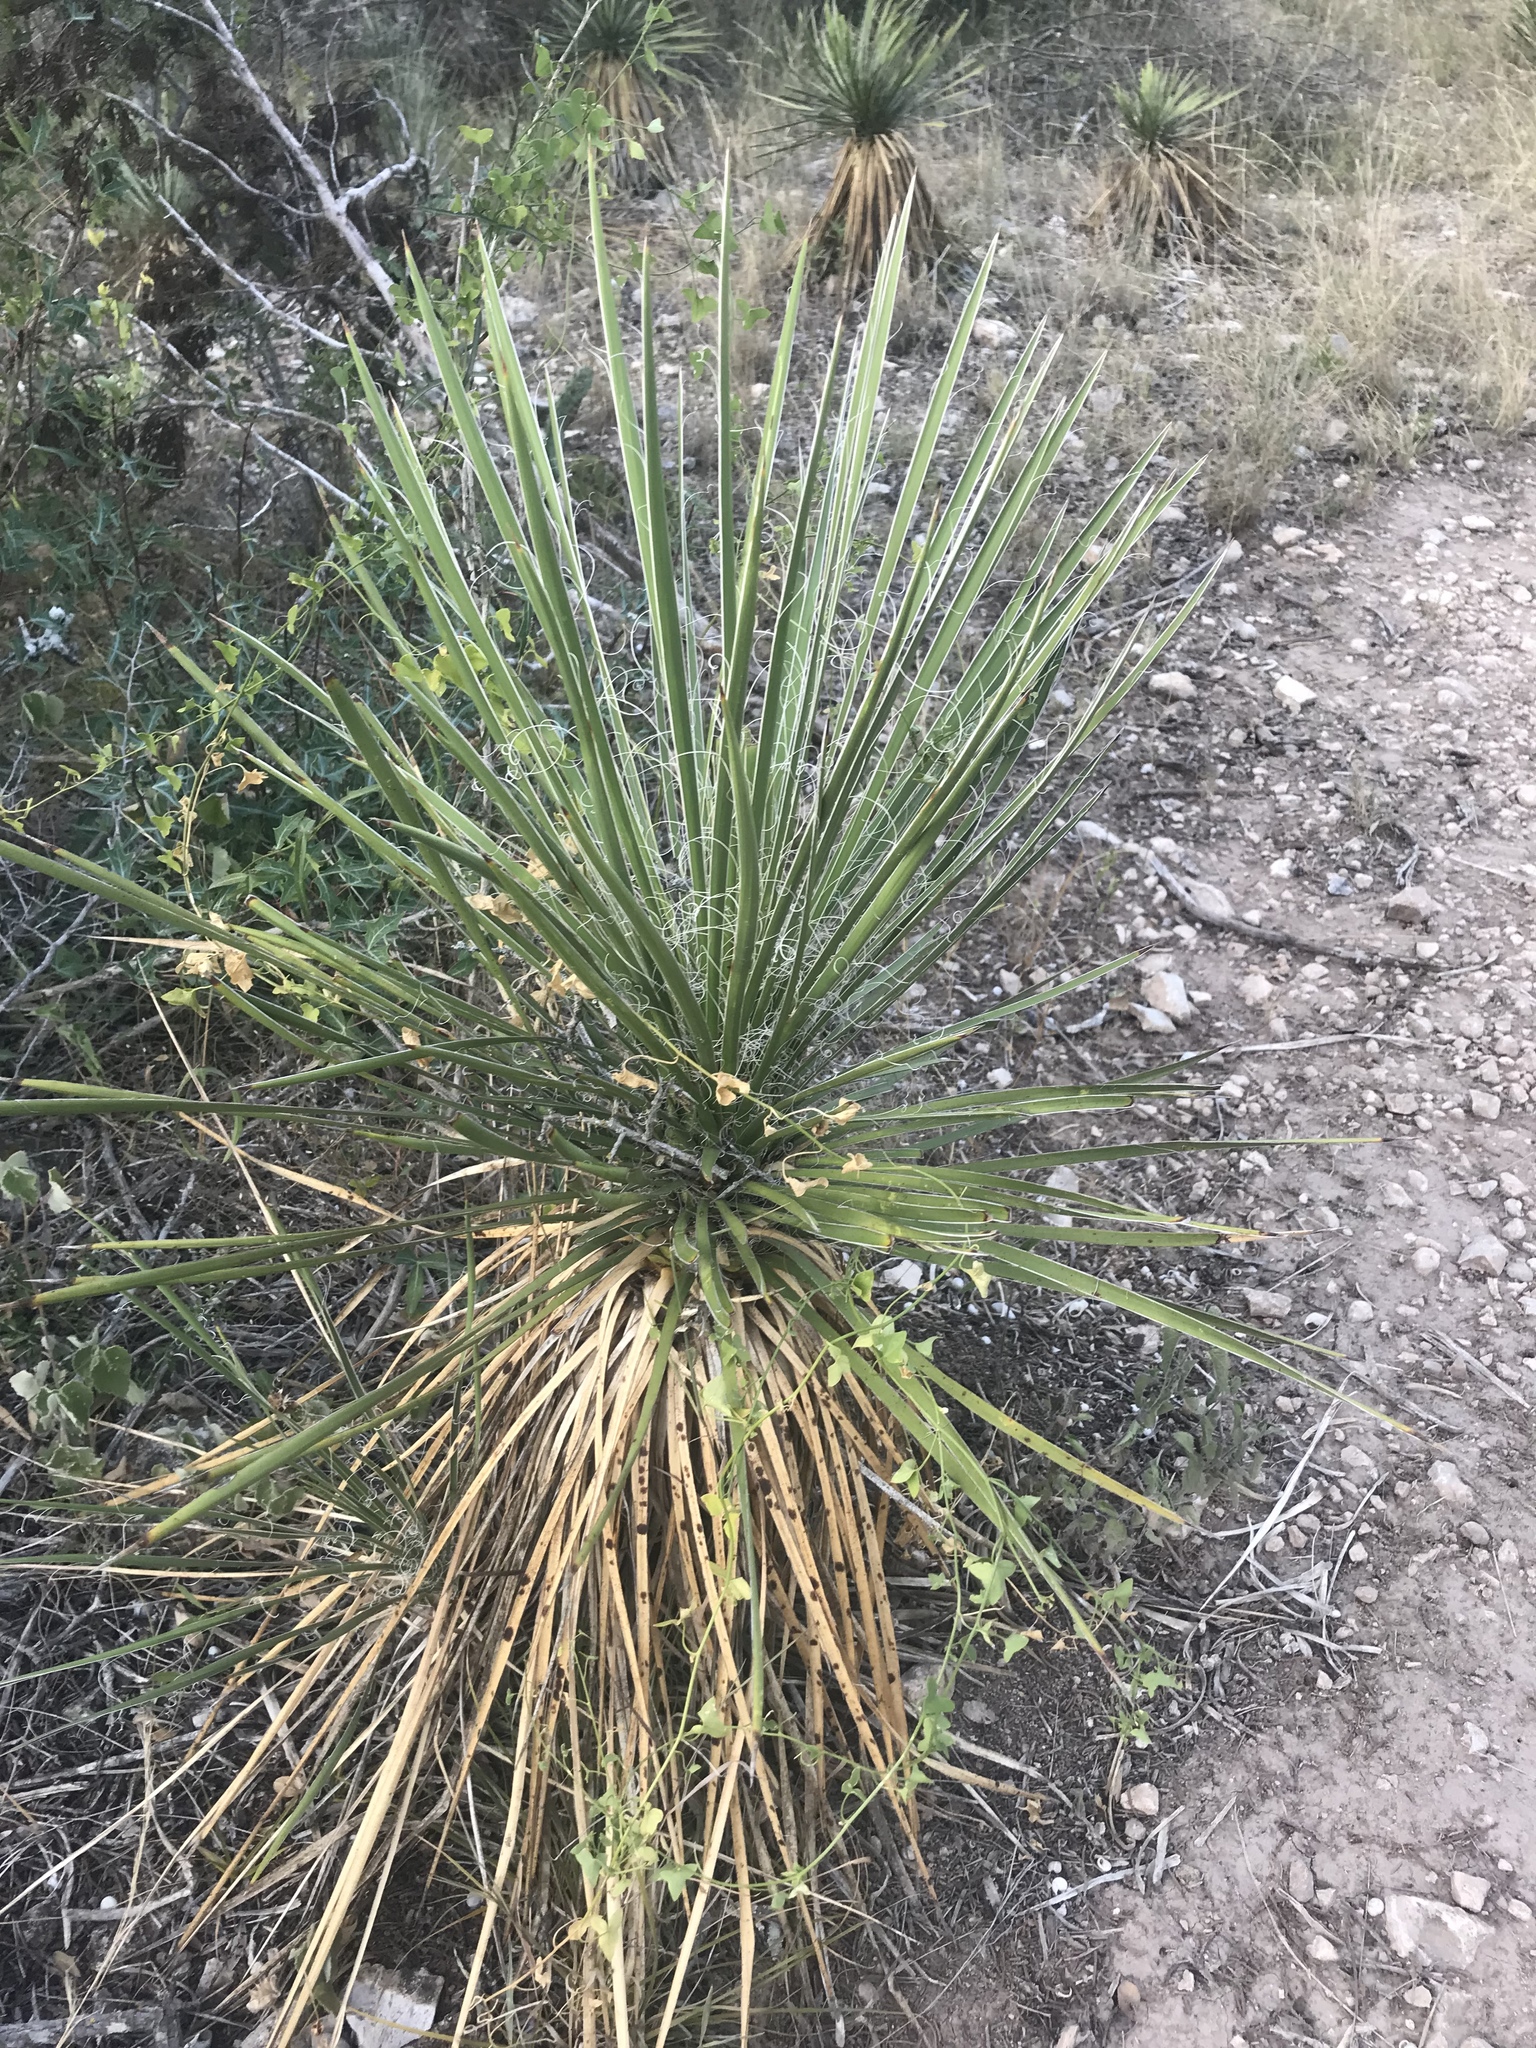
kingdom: Plantae
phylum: Tracheophyta
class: Liliopsida
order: Asparagales
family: Asparagaceae
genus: Yucca
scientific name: Yucca constricta
